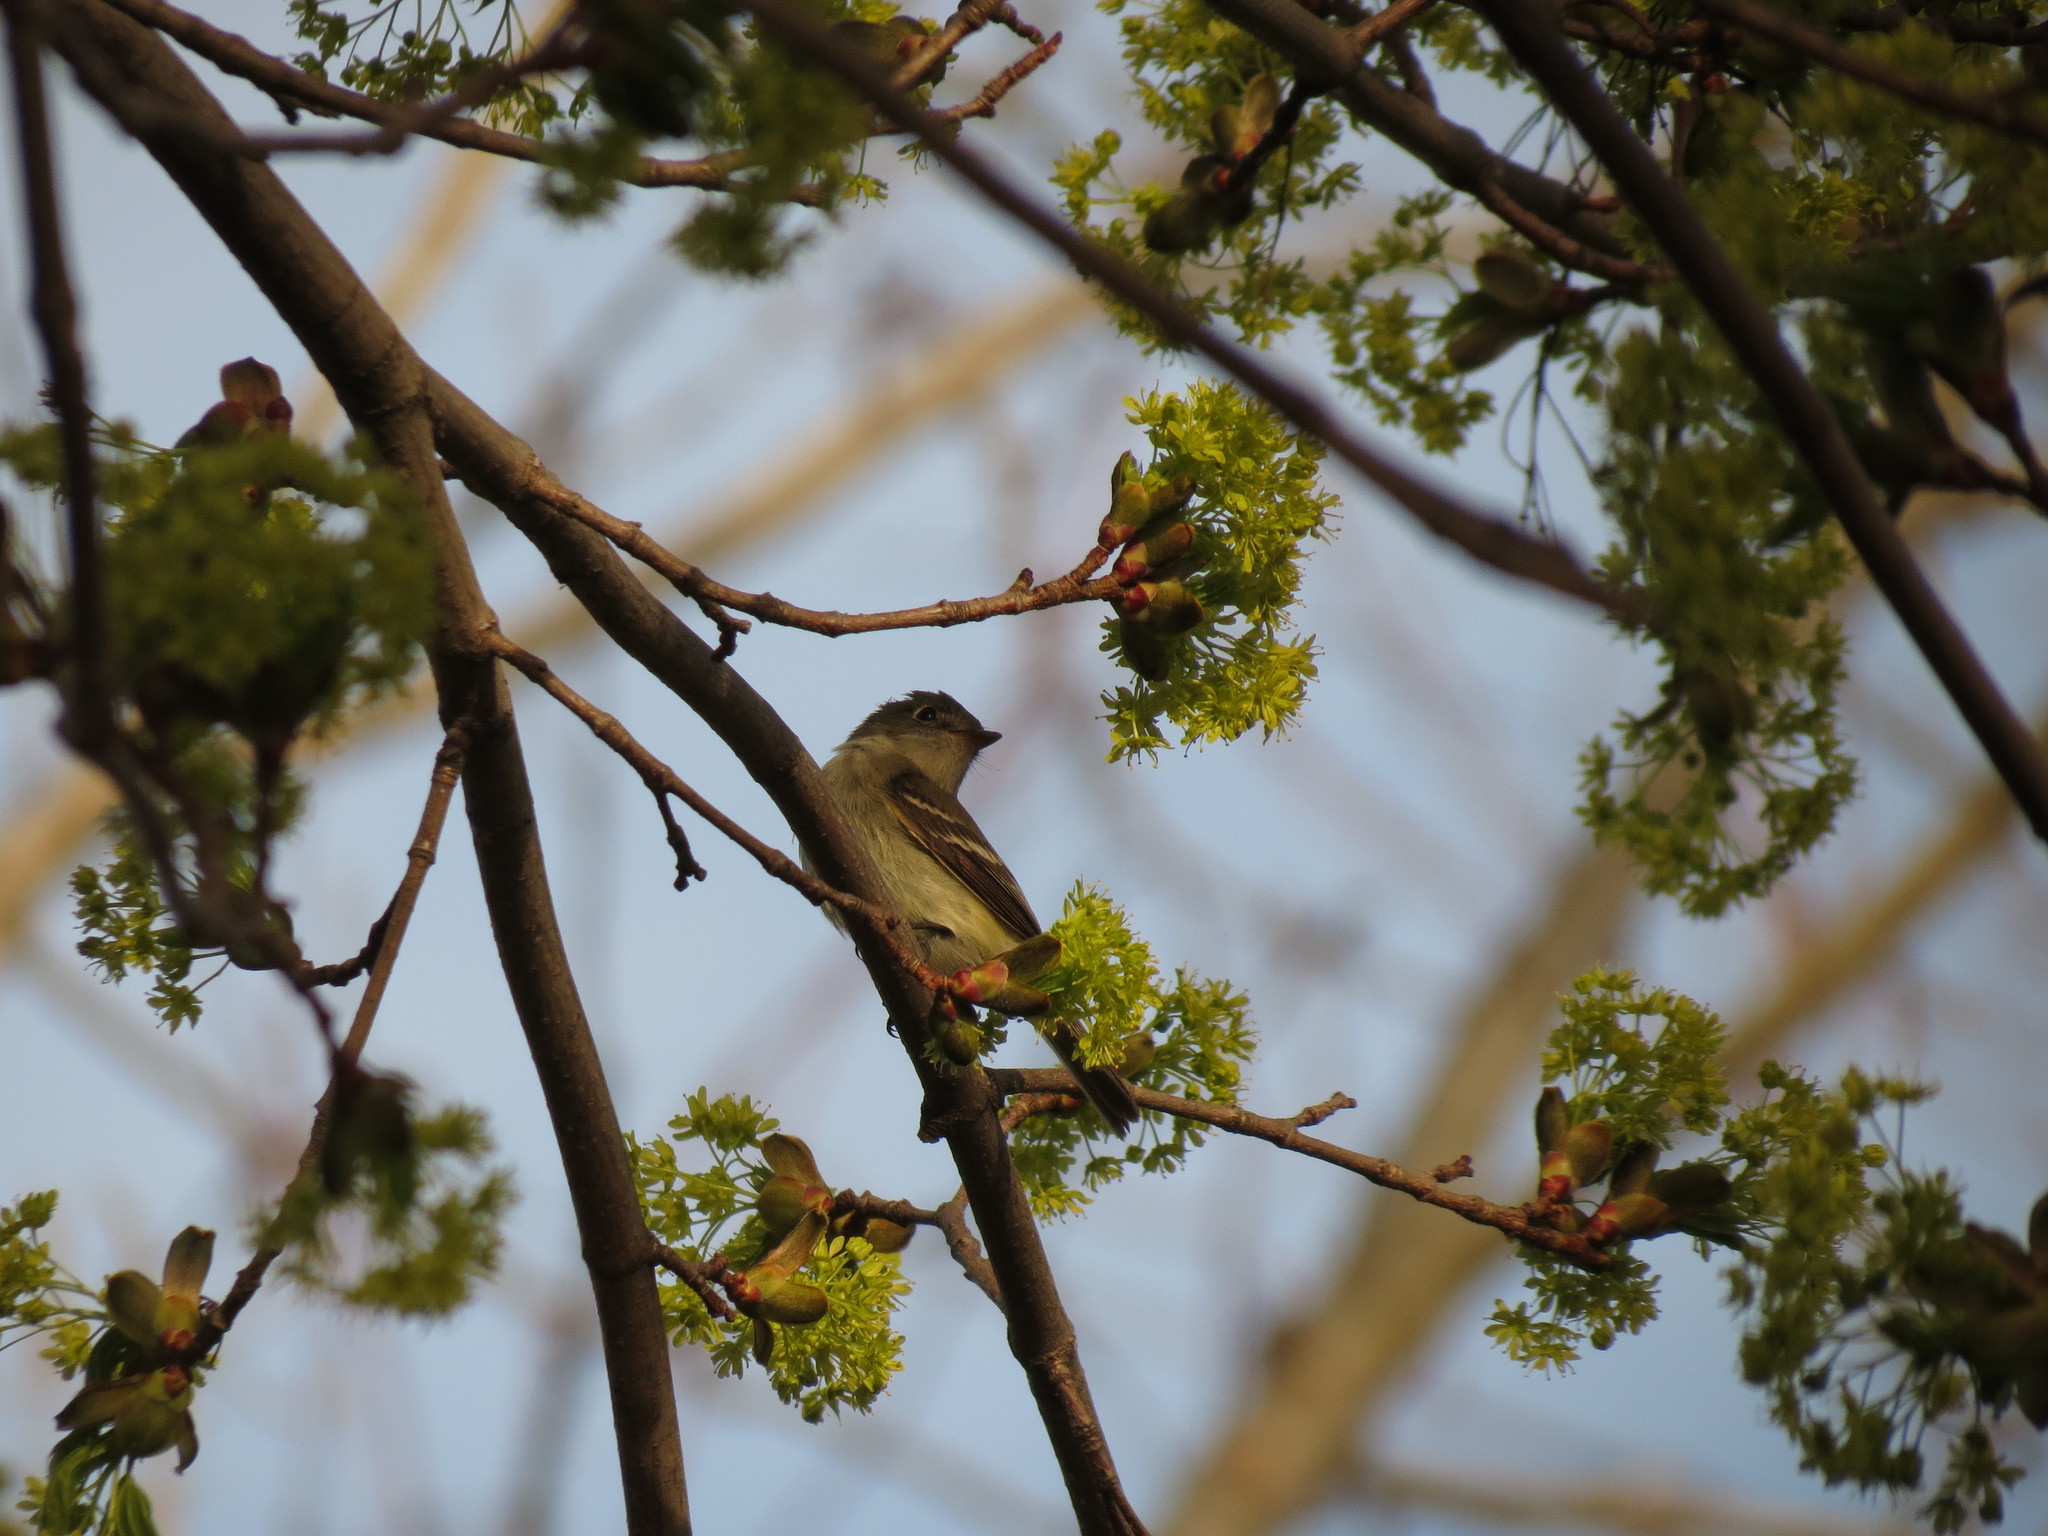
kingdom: Animalia
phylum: Chordata
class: Aves
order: Passeriformes
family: Tyrannidae
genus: Empidonax
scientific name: Empidonax minimus
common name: Least flycatcher
